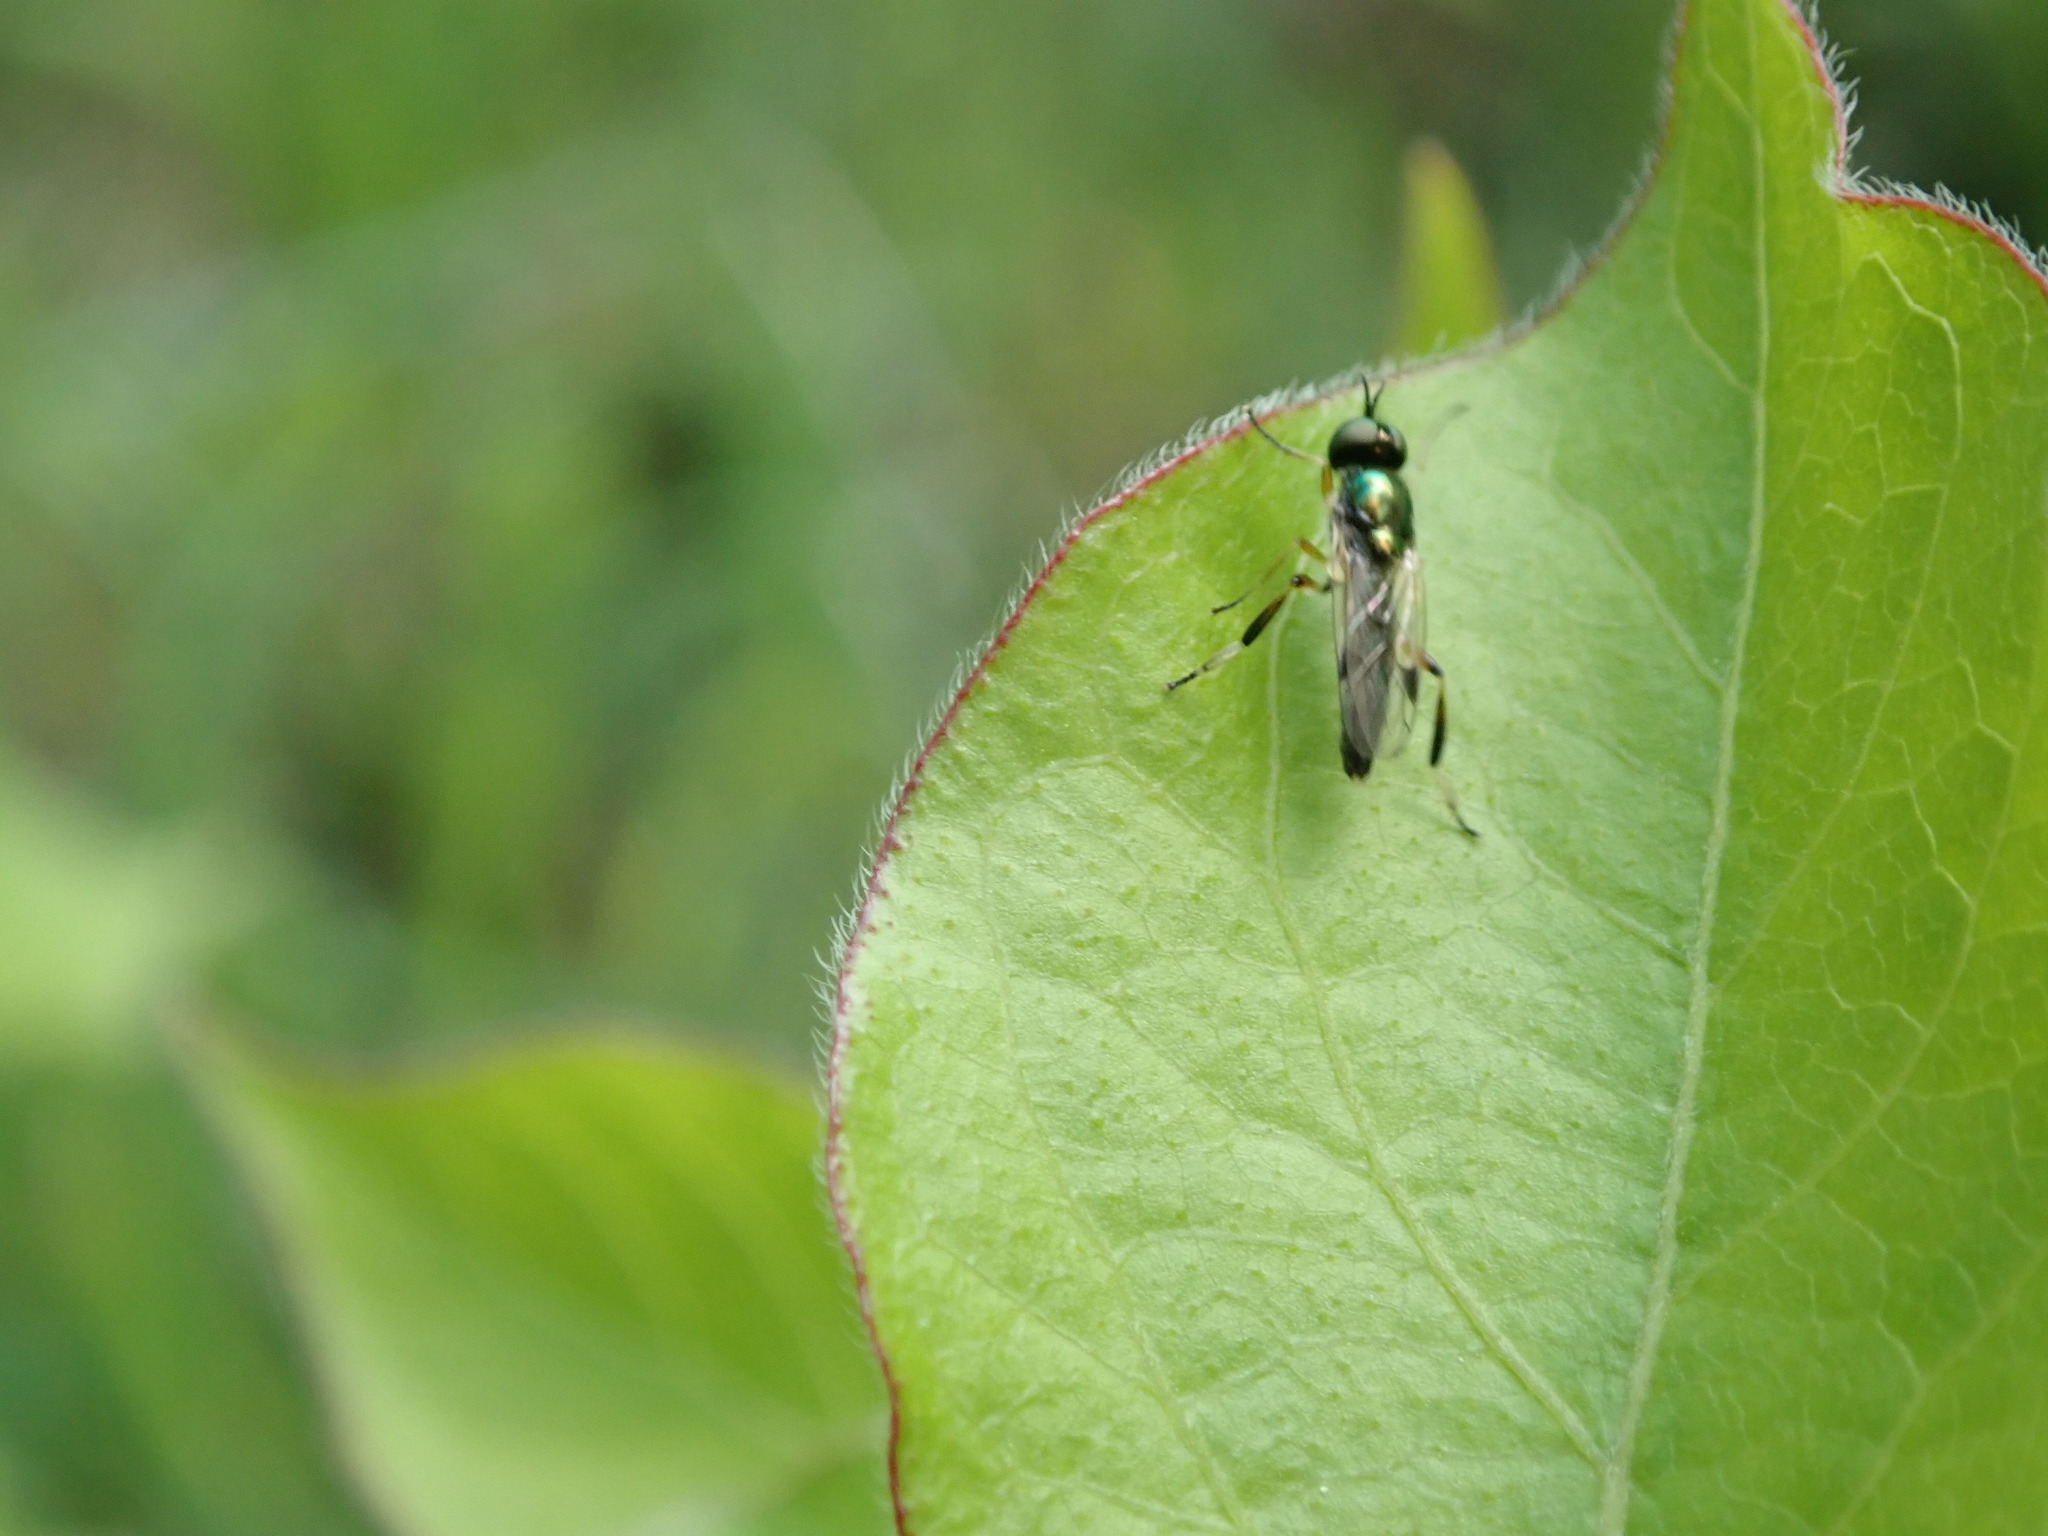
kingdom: Animalia
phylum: Arthropoda
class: Insecta
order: Diptera
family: Stratiomyidae
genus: Actina
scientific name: Actina viridis
